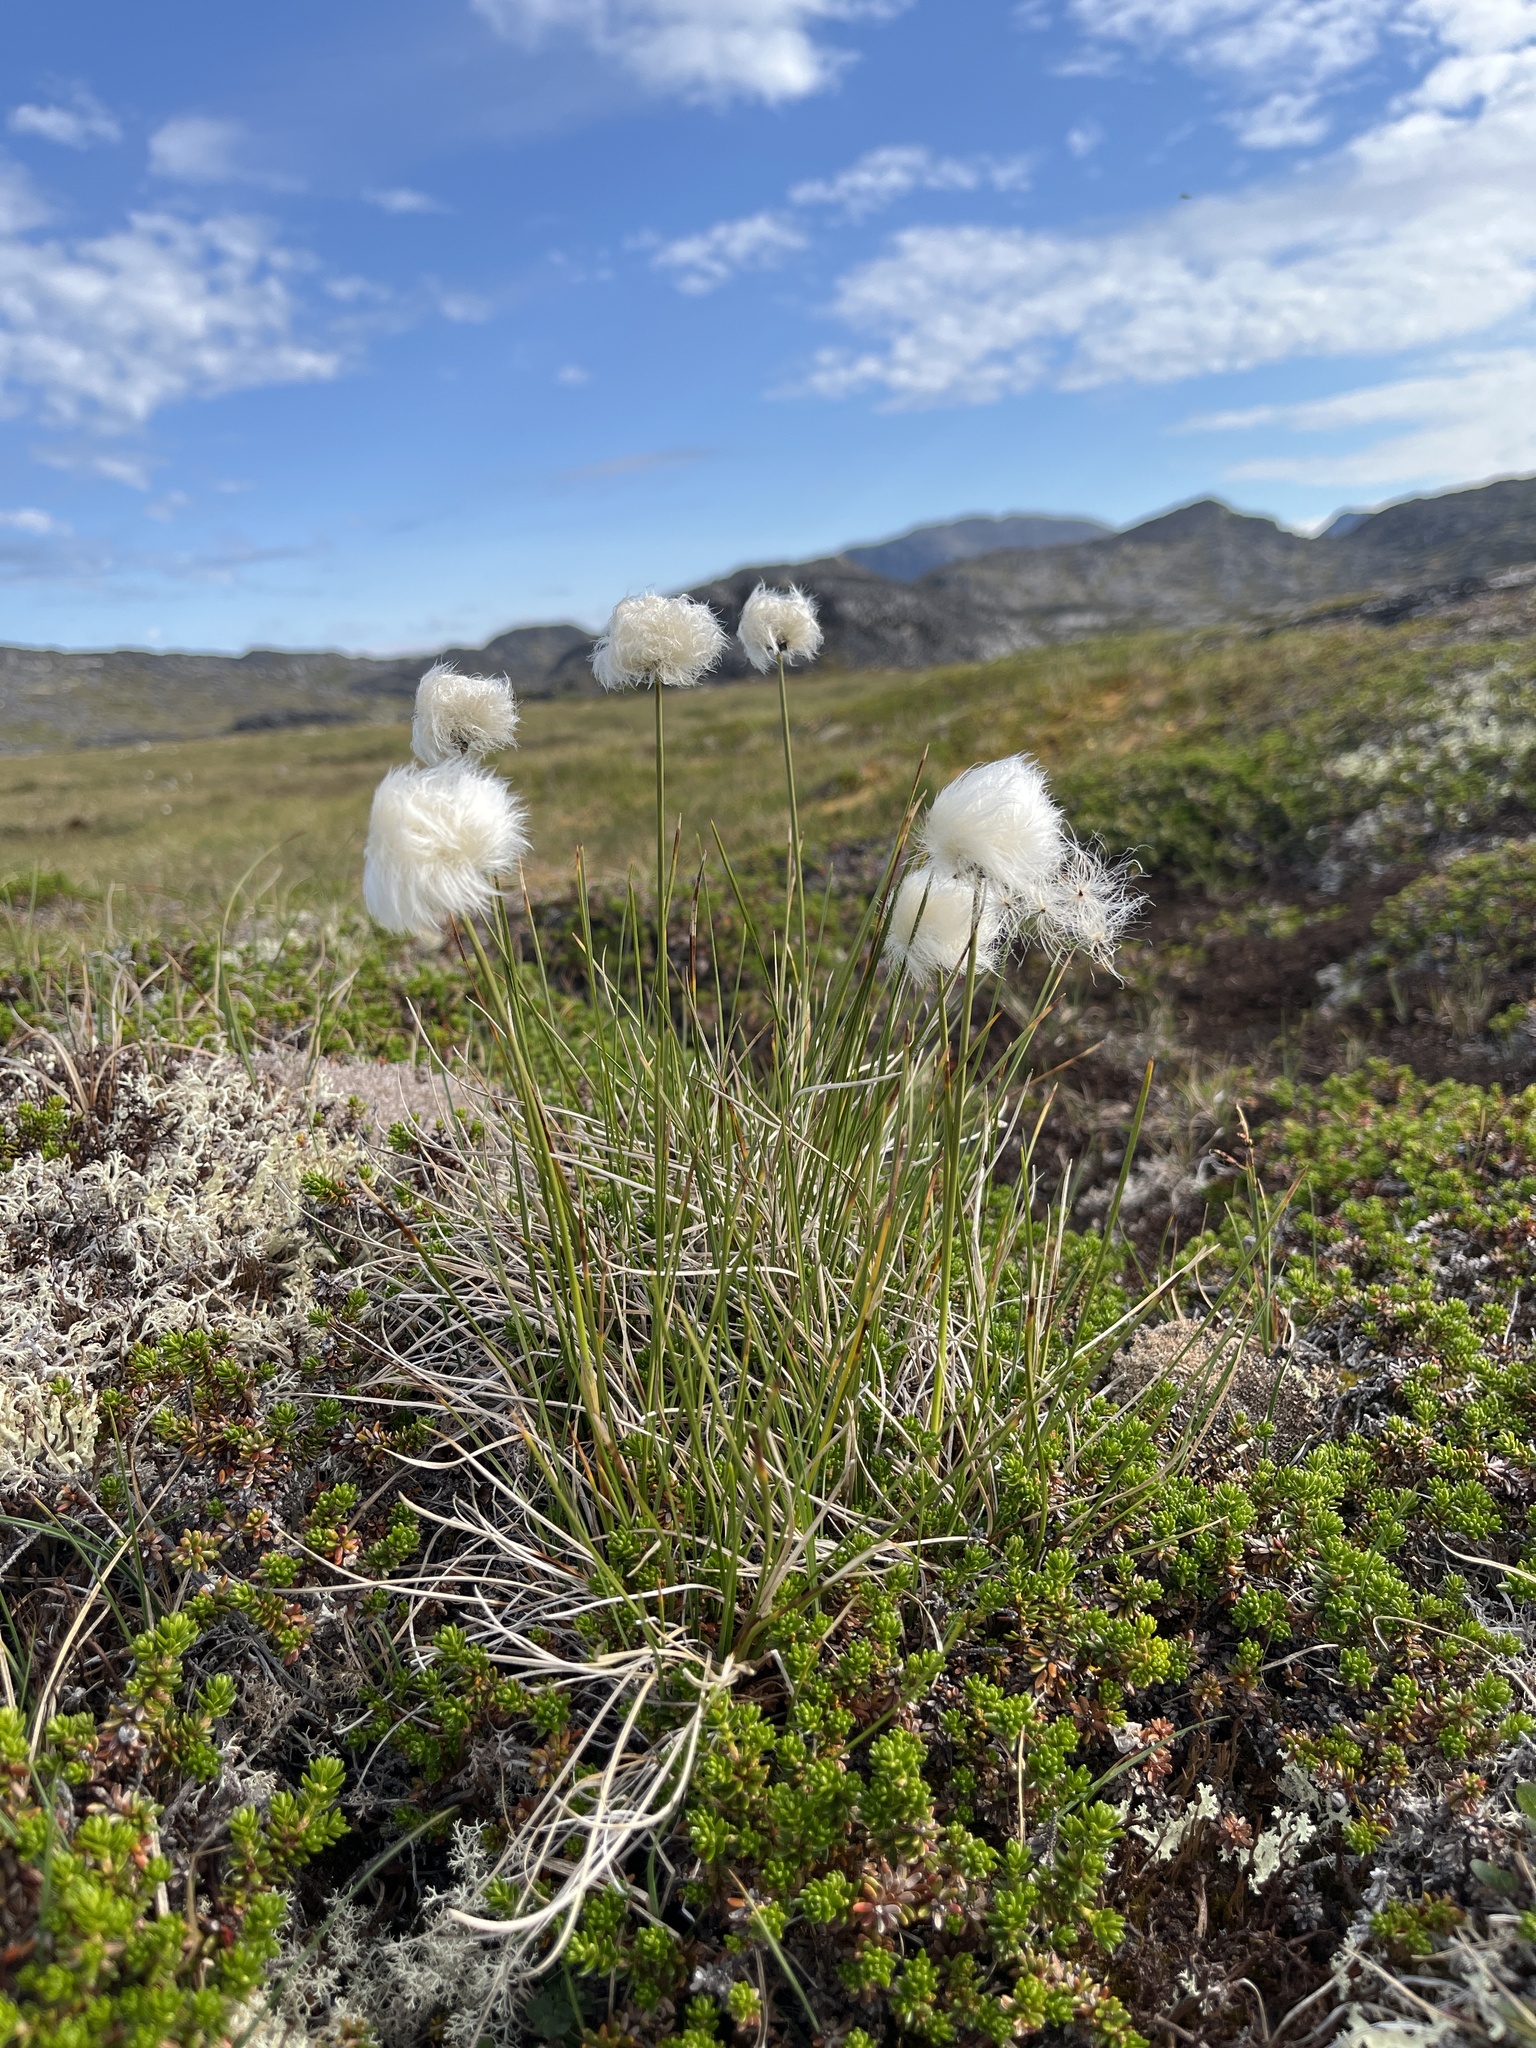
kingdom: Plantae
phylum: Tracheophyta
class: Liliopsida
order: Poales
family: Cyperaceae
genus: Eriophorum
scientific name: Eriophorum vaginatum
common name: Hare's-tail cottongrass
